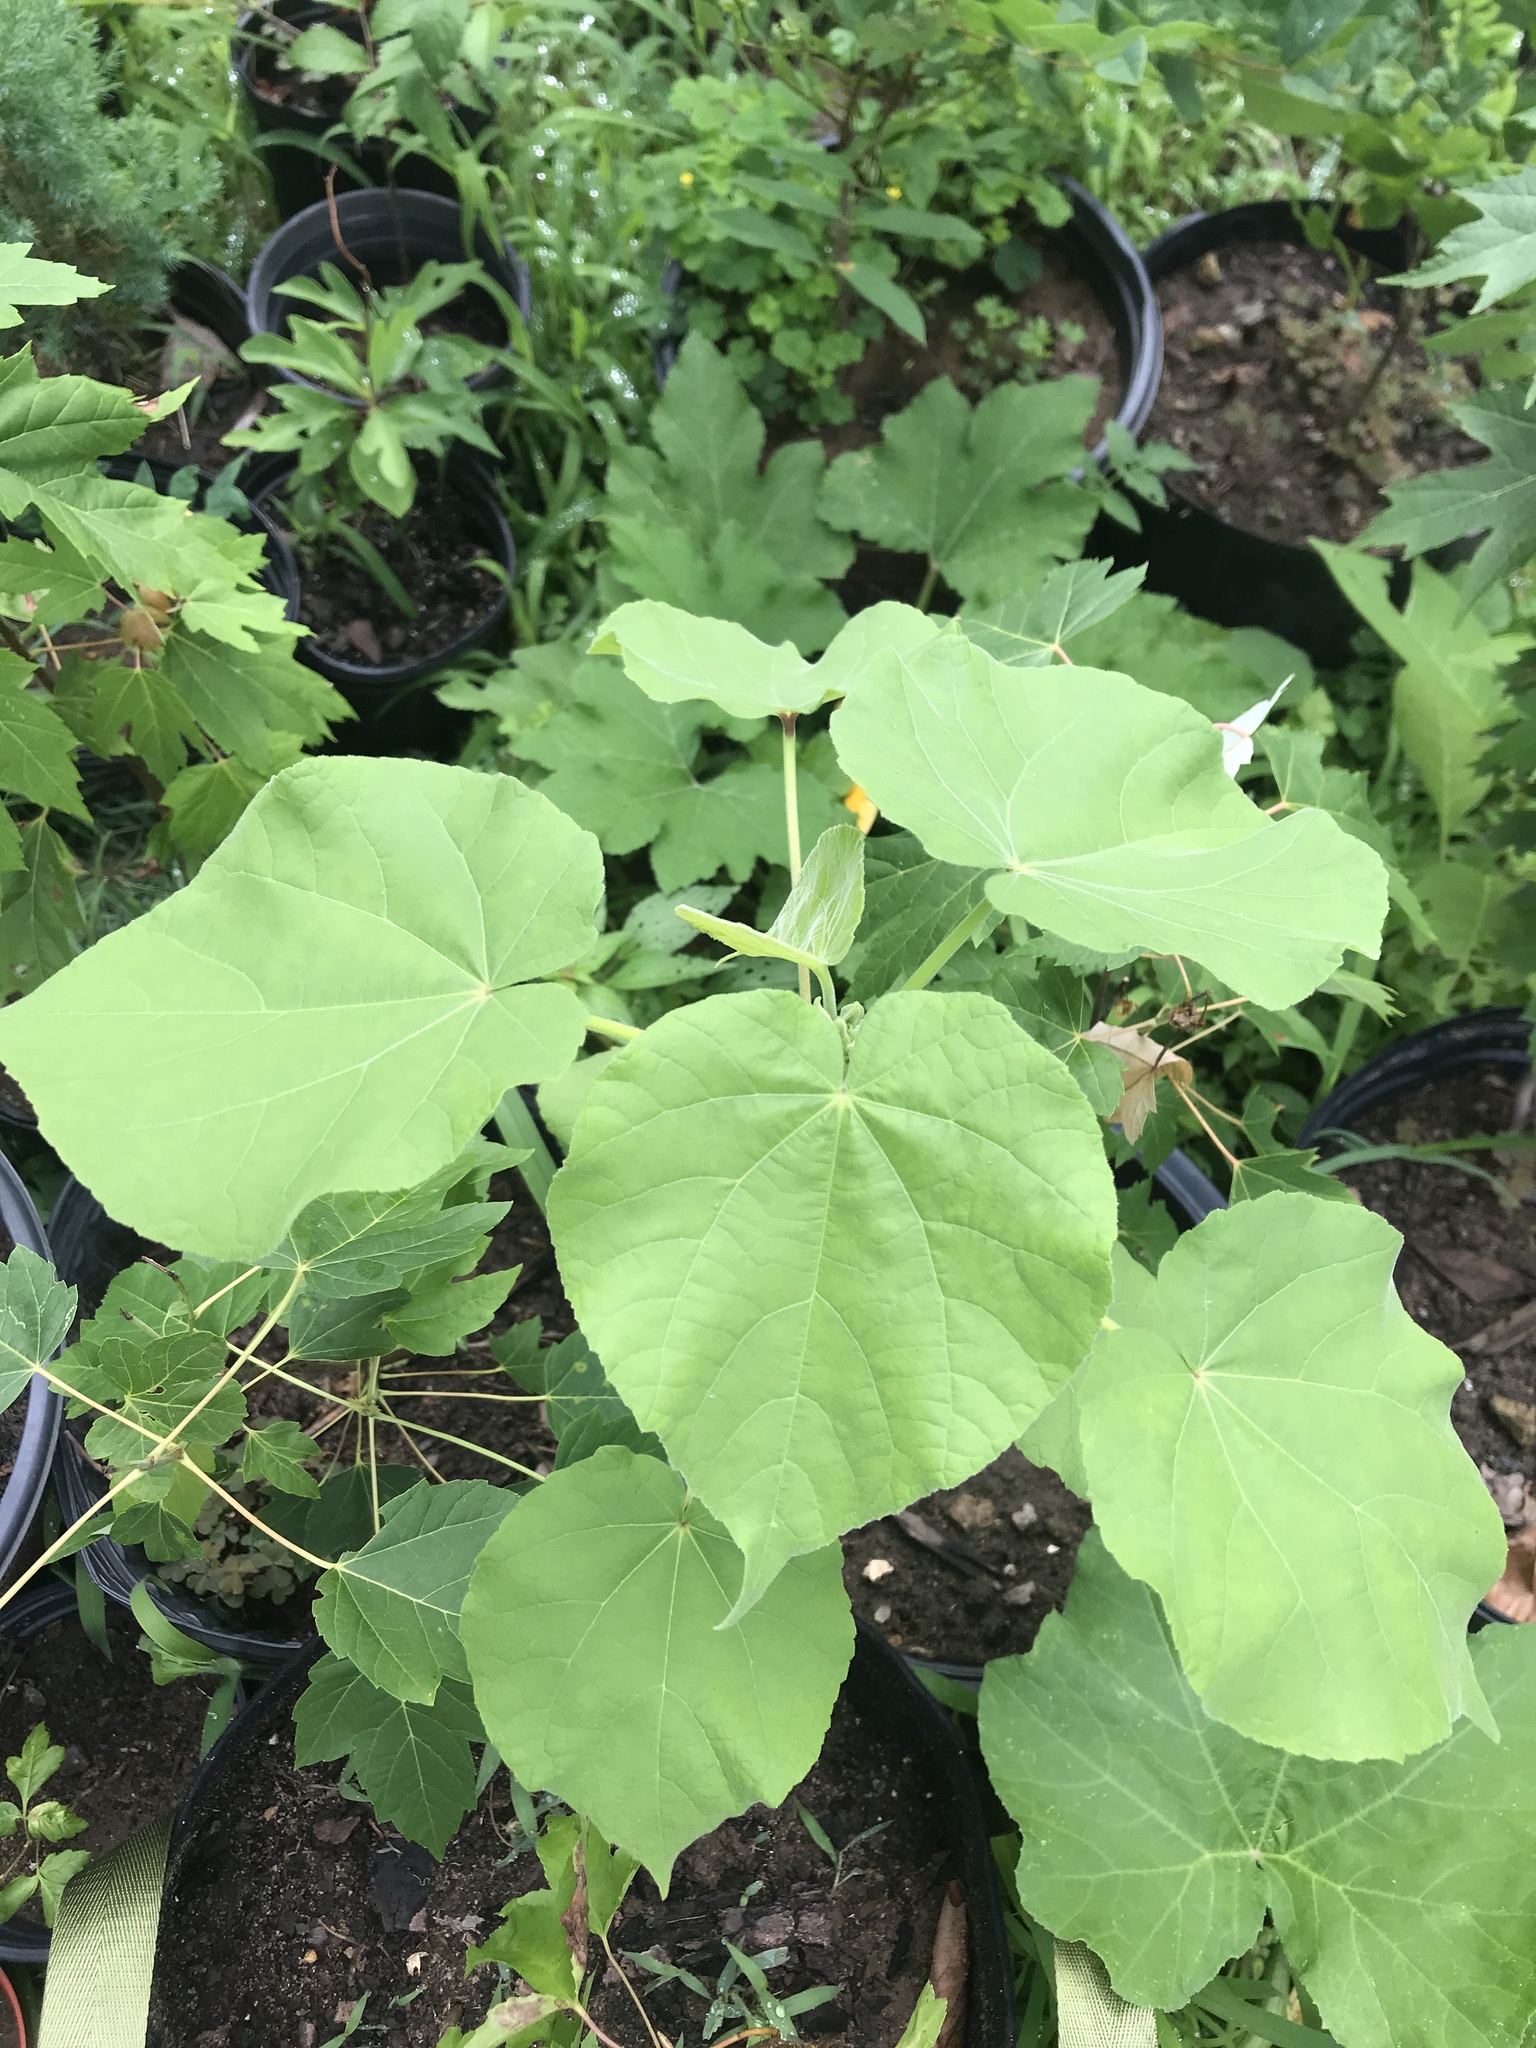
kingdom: Plantae
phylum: Tracheophyta
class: Magnoliopsida
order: Malvales
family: Malvaceae
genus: Abutilon
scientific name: Abutilon theophrasti
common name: Velvetleaf
